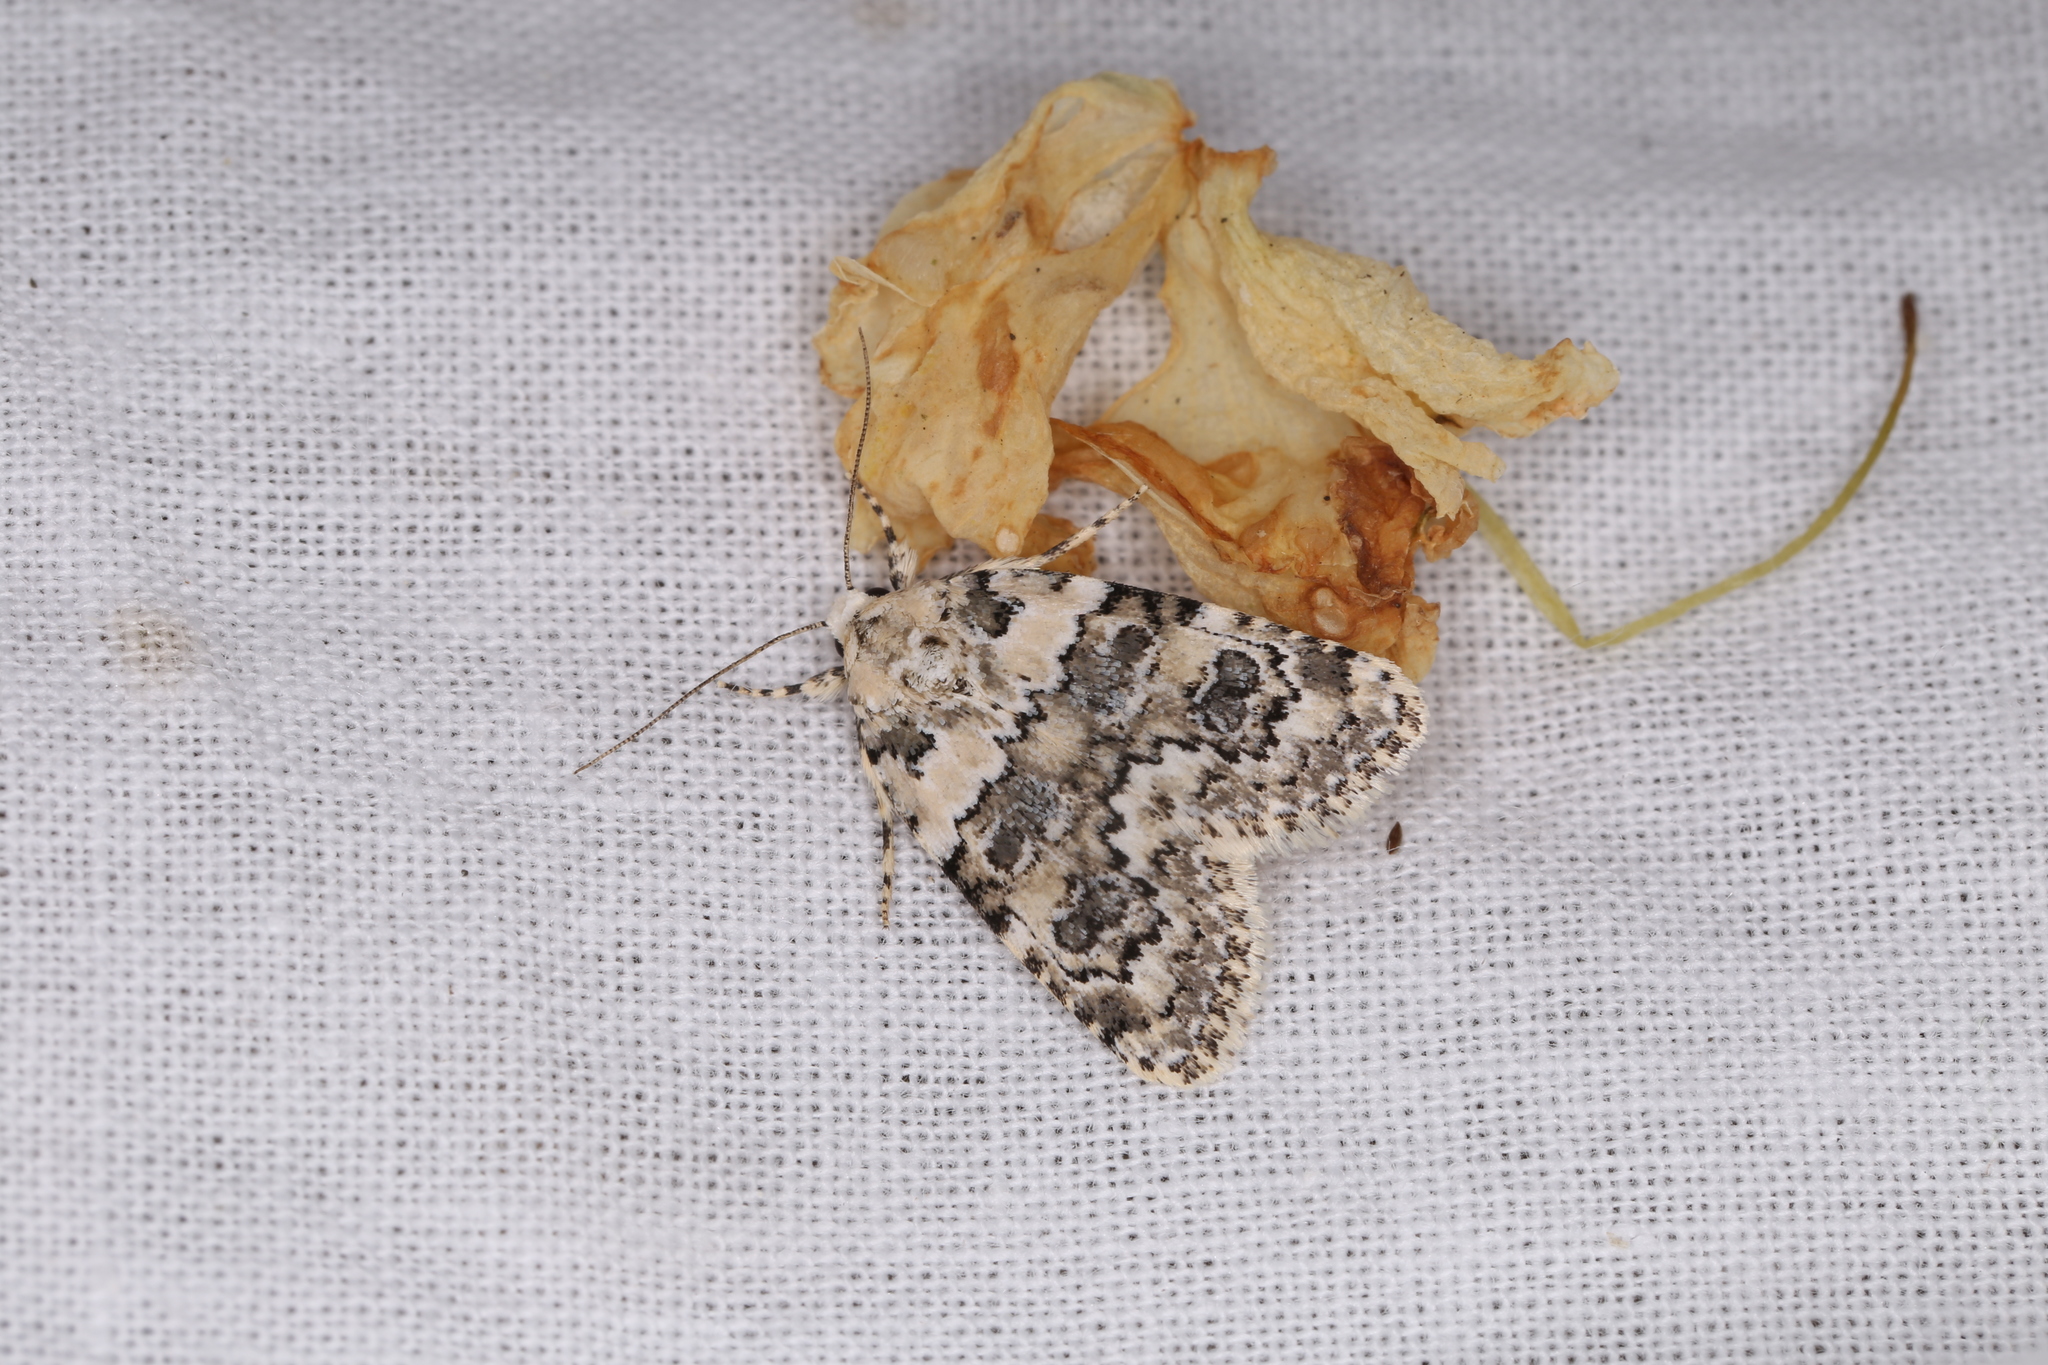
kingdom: Animalia
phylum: Arthropoda
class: Insecta
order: Lepidoptera
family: Noctuidae
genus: Bryophila
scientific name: Bryophila domestica
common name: Marbled beauty
